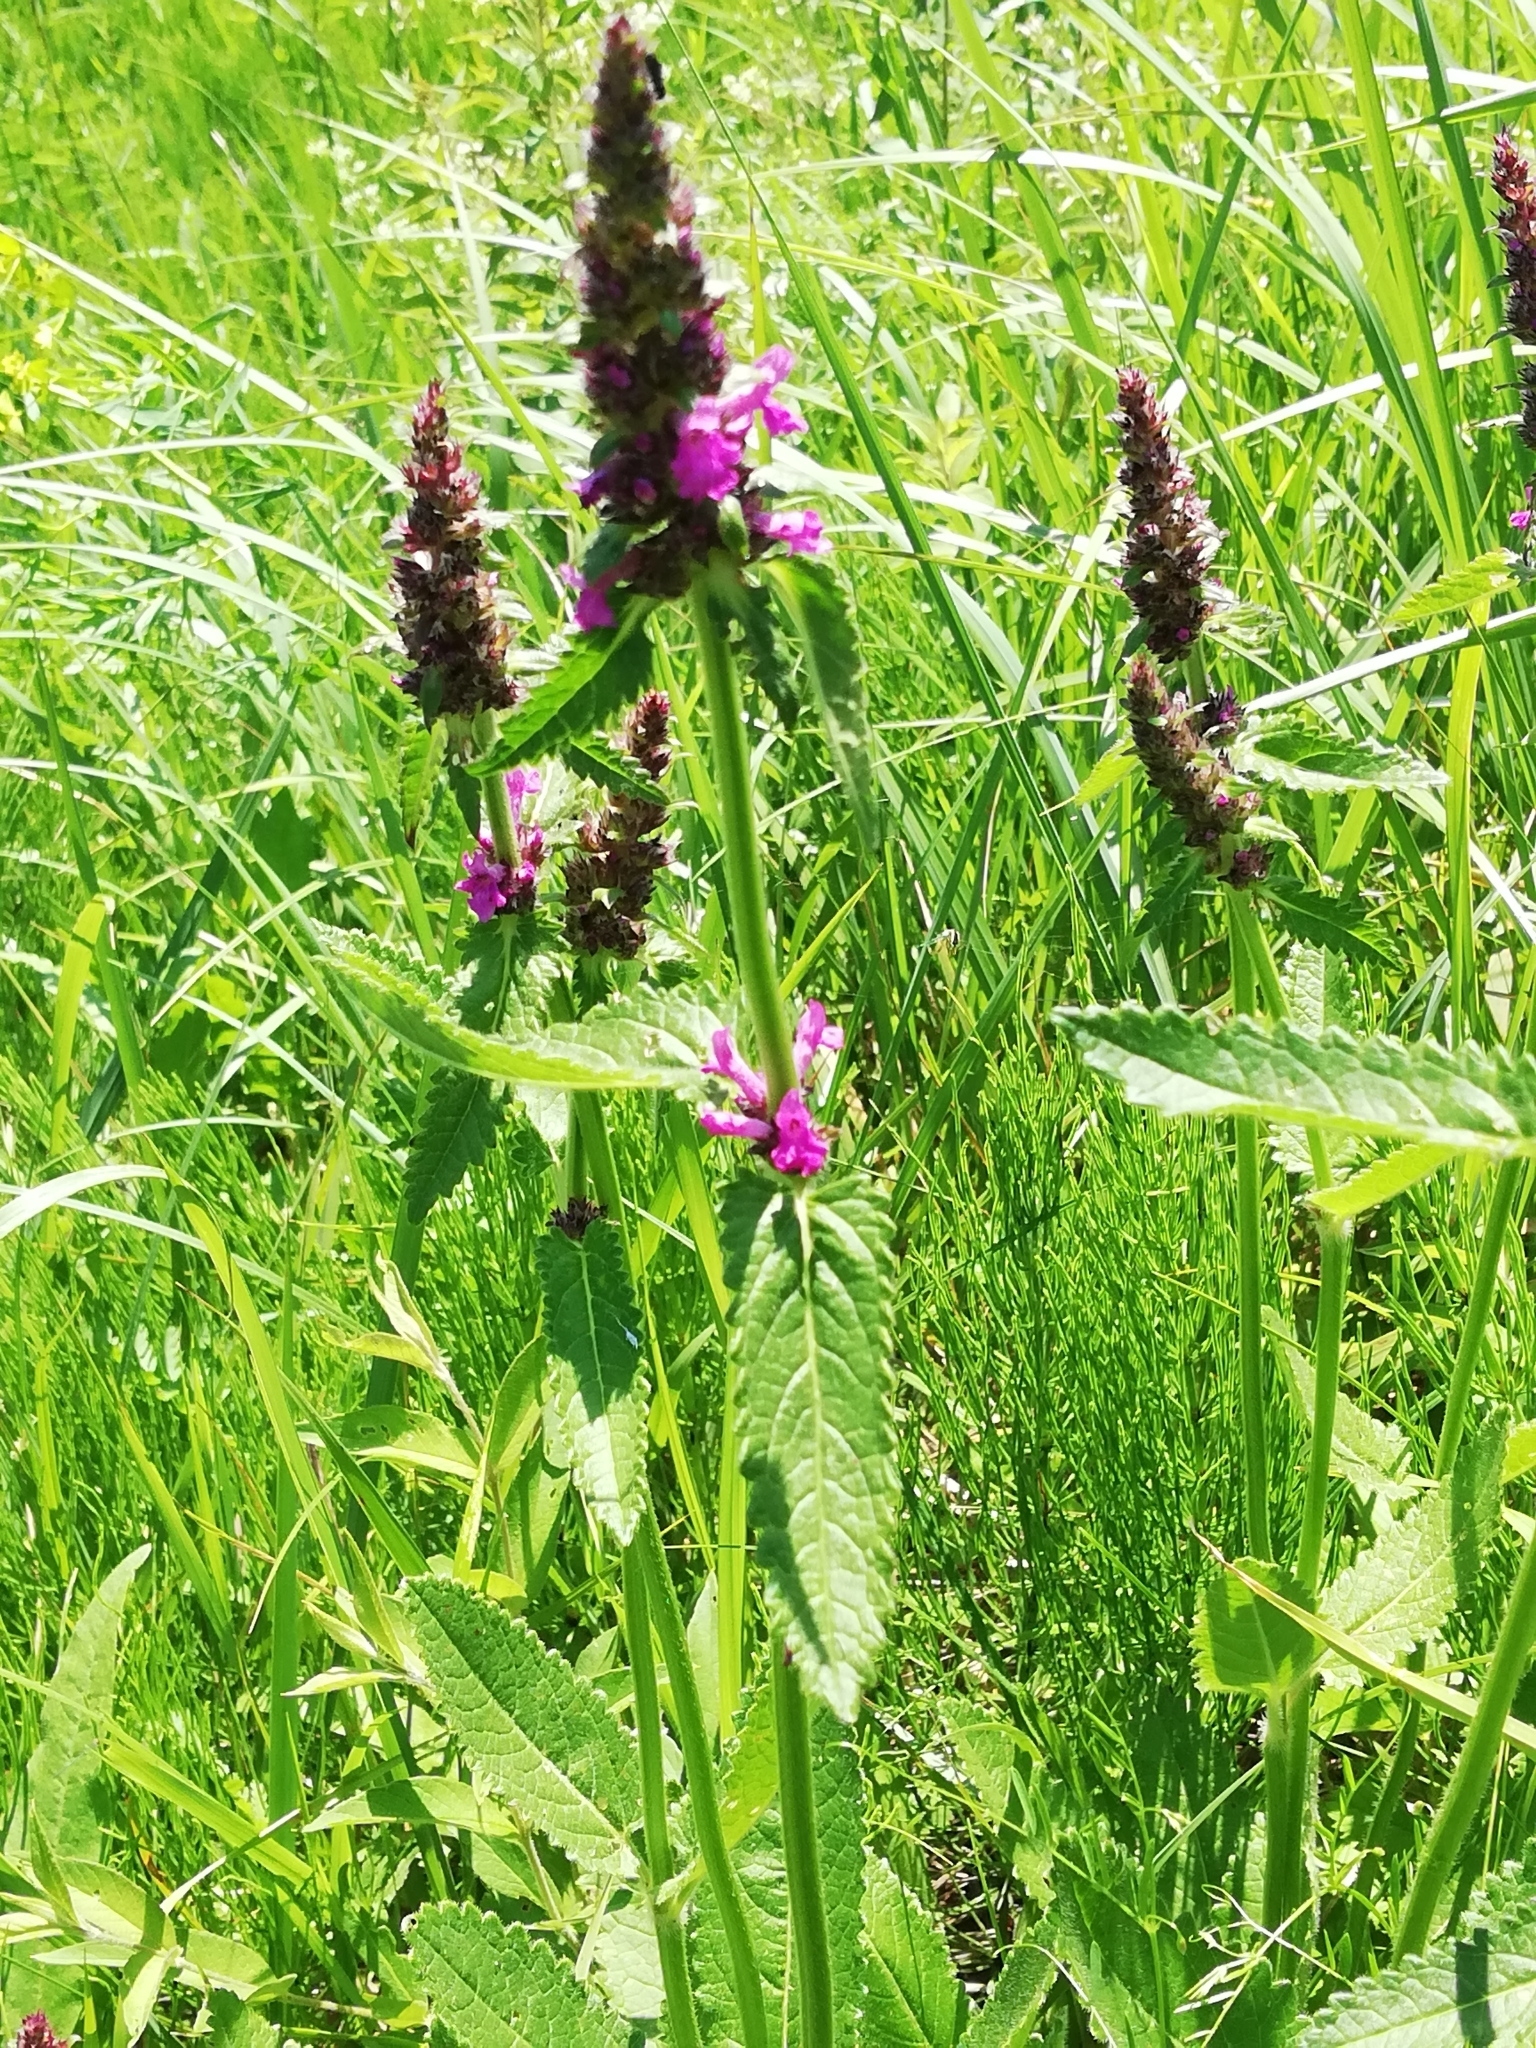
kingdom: Plantae
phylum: Tracheophyta
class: Magnoliopsida
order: Lamiales
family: Lamiaceae
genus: Betonica
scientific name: Betonica officinalis
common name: Bishop's-wort
